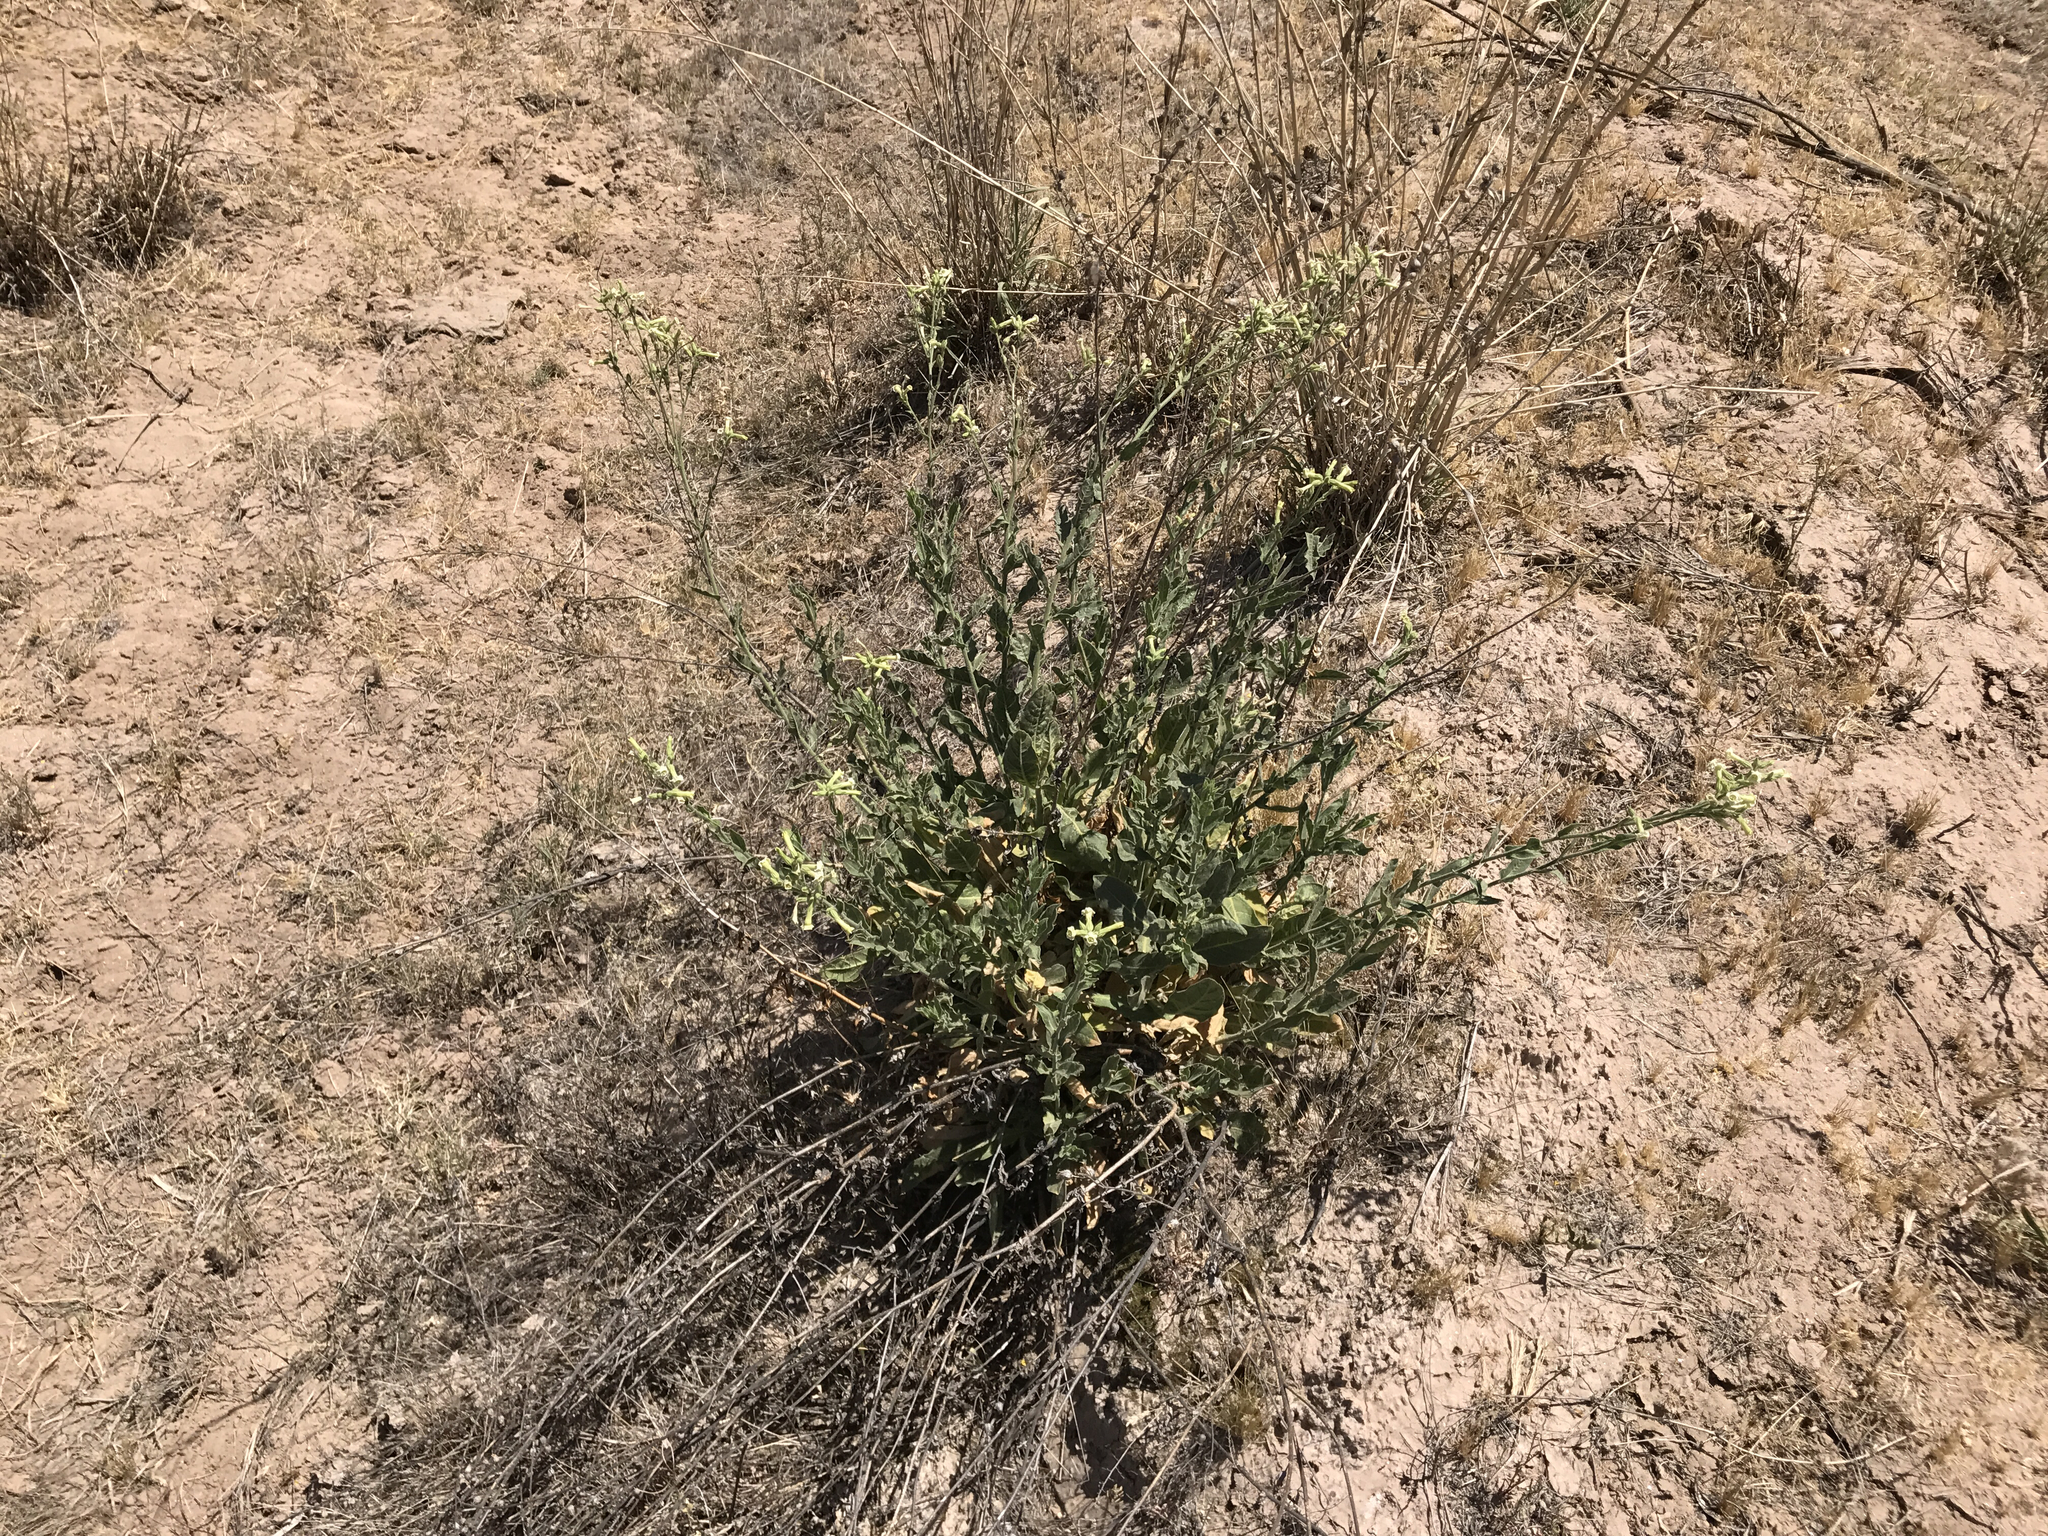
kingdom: Plantae
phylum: Tracheophyta
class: Magnoliopsida
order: Solanales
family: Solanaceae
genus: Nicotiana
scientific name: Nicotiana obtusifolia
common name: Desert tobacco
